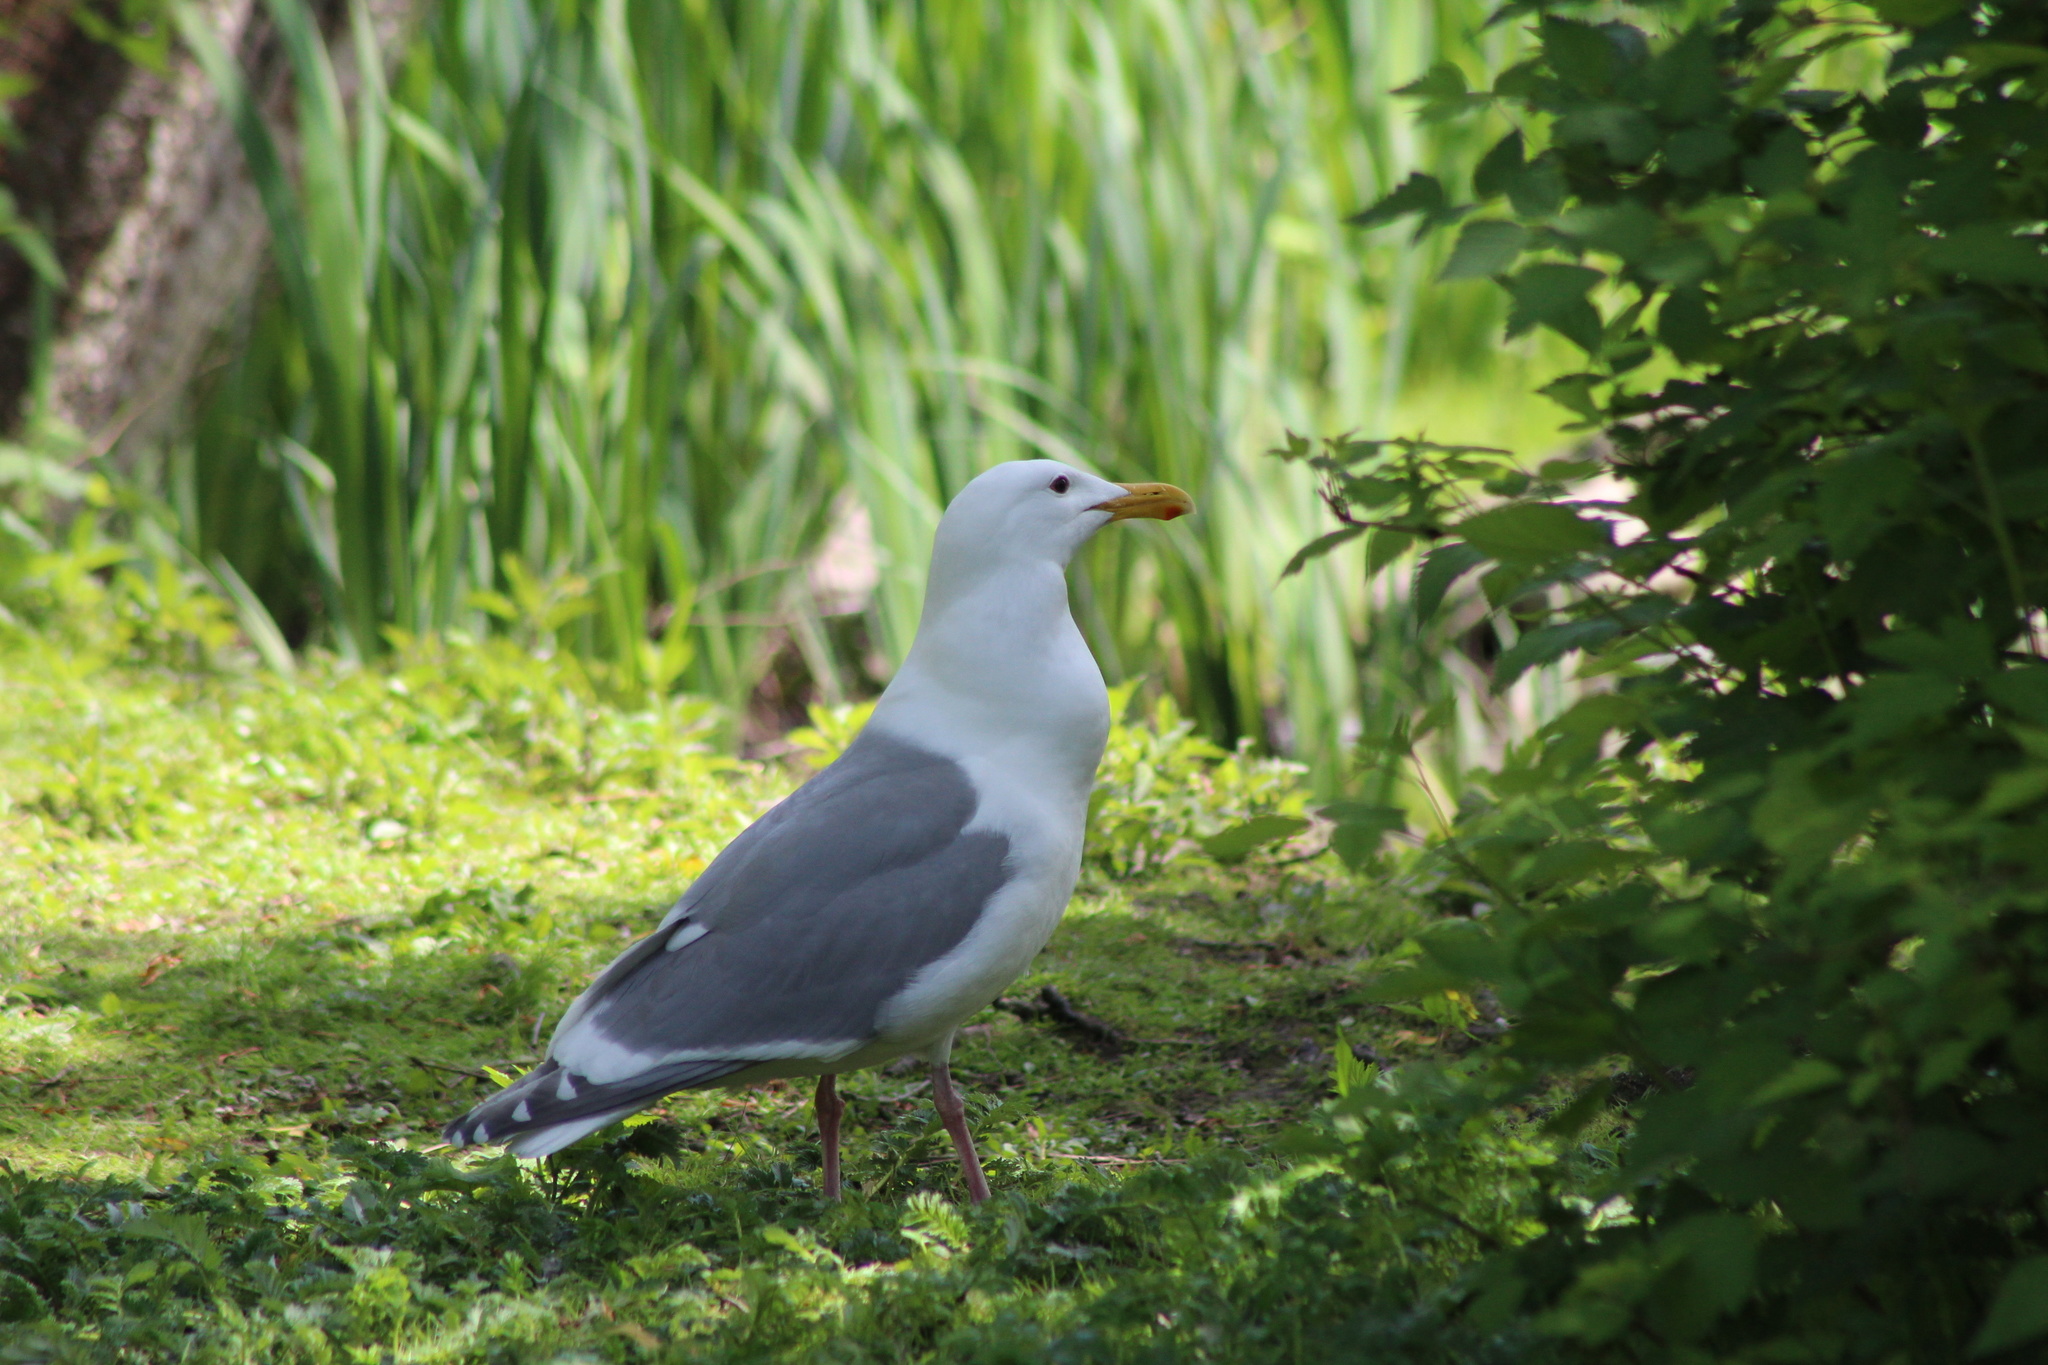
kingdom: Animalia
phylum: Chordata
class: Aves
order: Charadriiformes
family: Laridae
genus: Larus
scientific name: Larus
